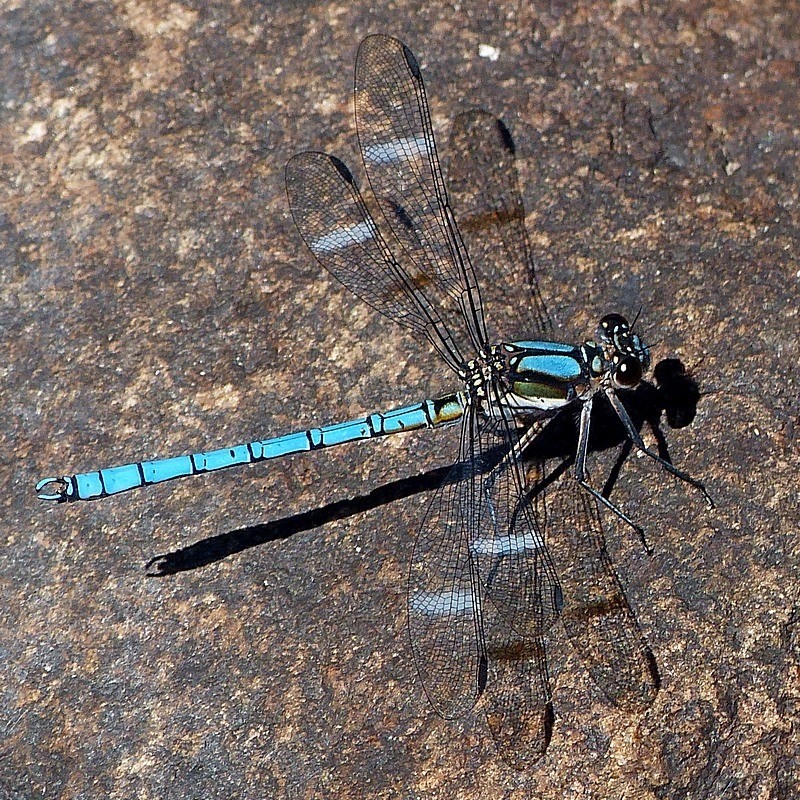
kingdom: Animalia
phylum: Arthropoda
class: Insecta
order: Odonata
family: Lestoideidae
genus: Diphlebia
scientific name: Diphlebia lestoides
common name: Whitewater rockmaster
